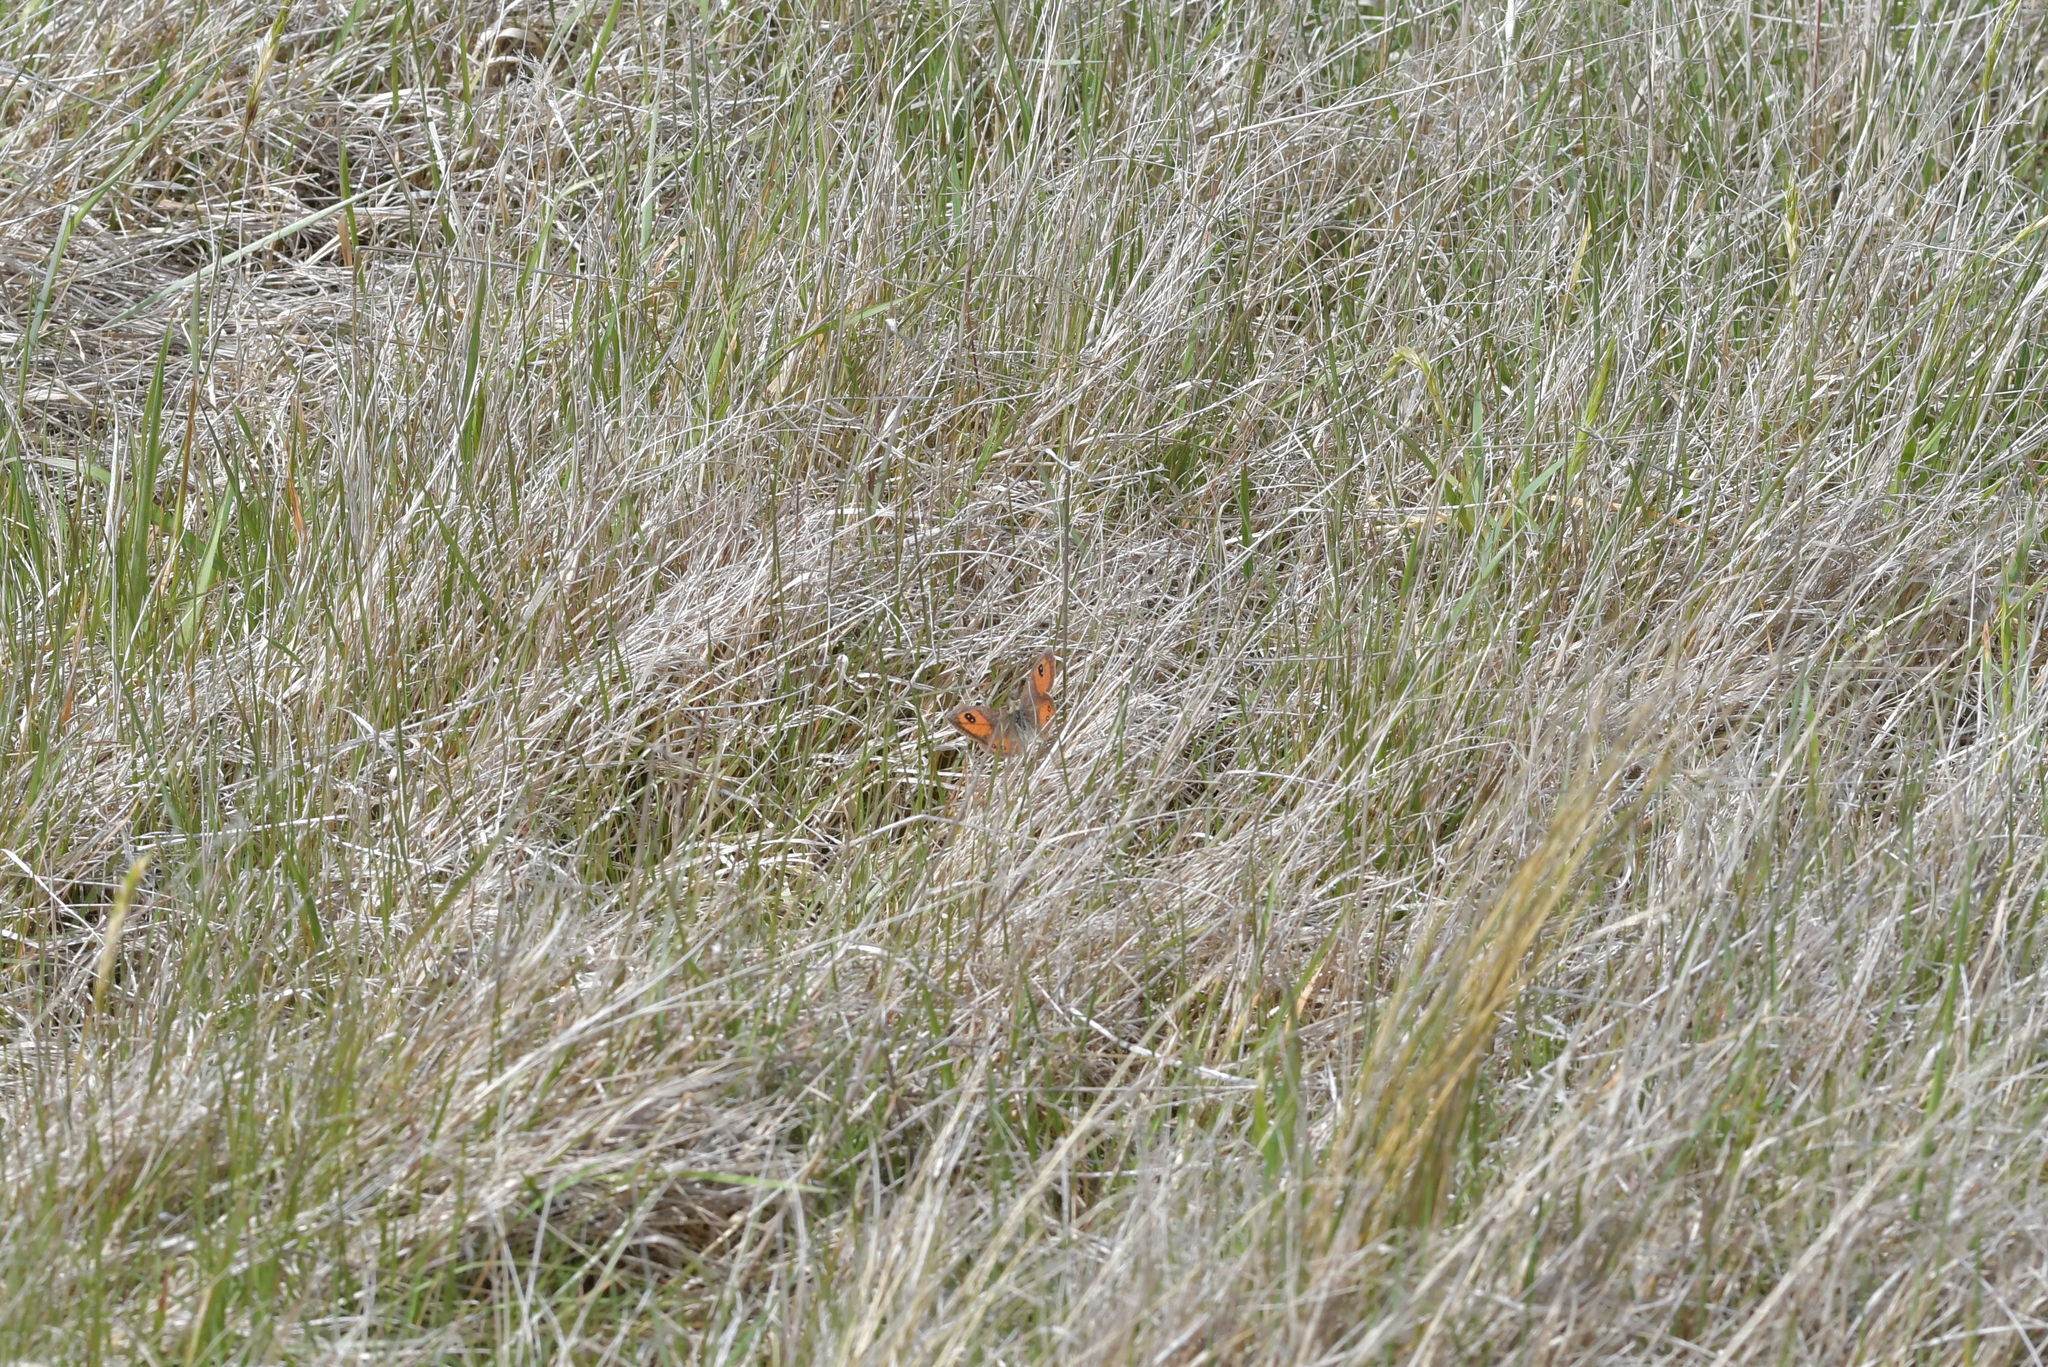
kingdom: Animalia
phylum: Arthropoda
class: Insecta
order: Lepidoptera
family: Nymphalidae
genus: Argyrophenga
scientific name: Argyrophenga antipodum
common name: Common tussock butterfly
